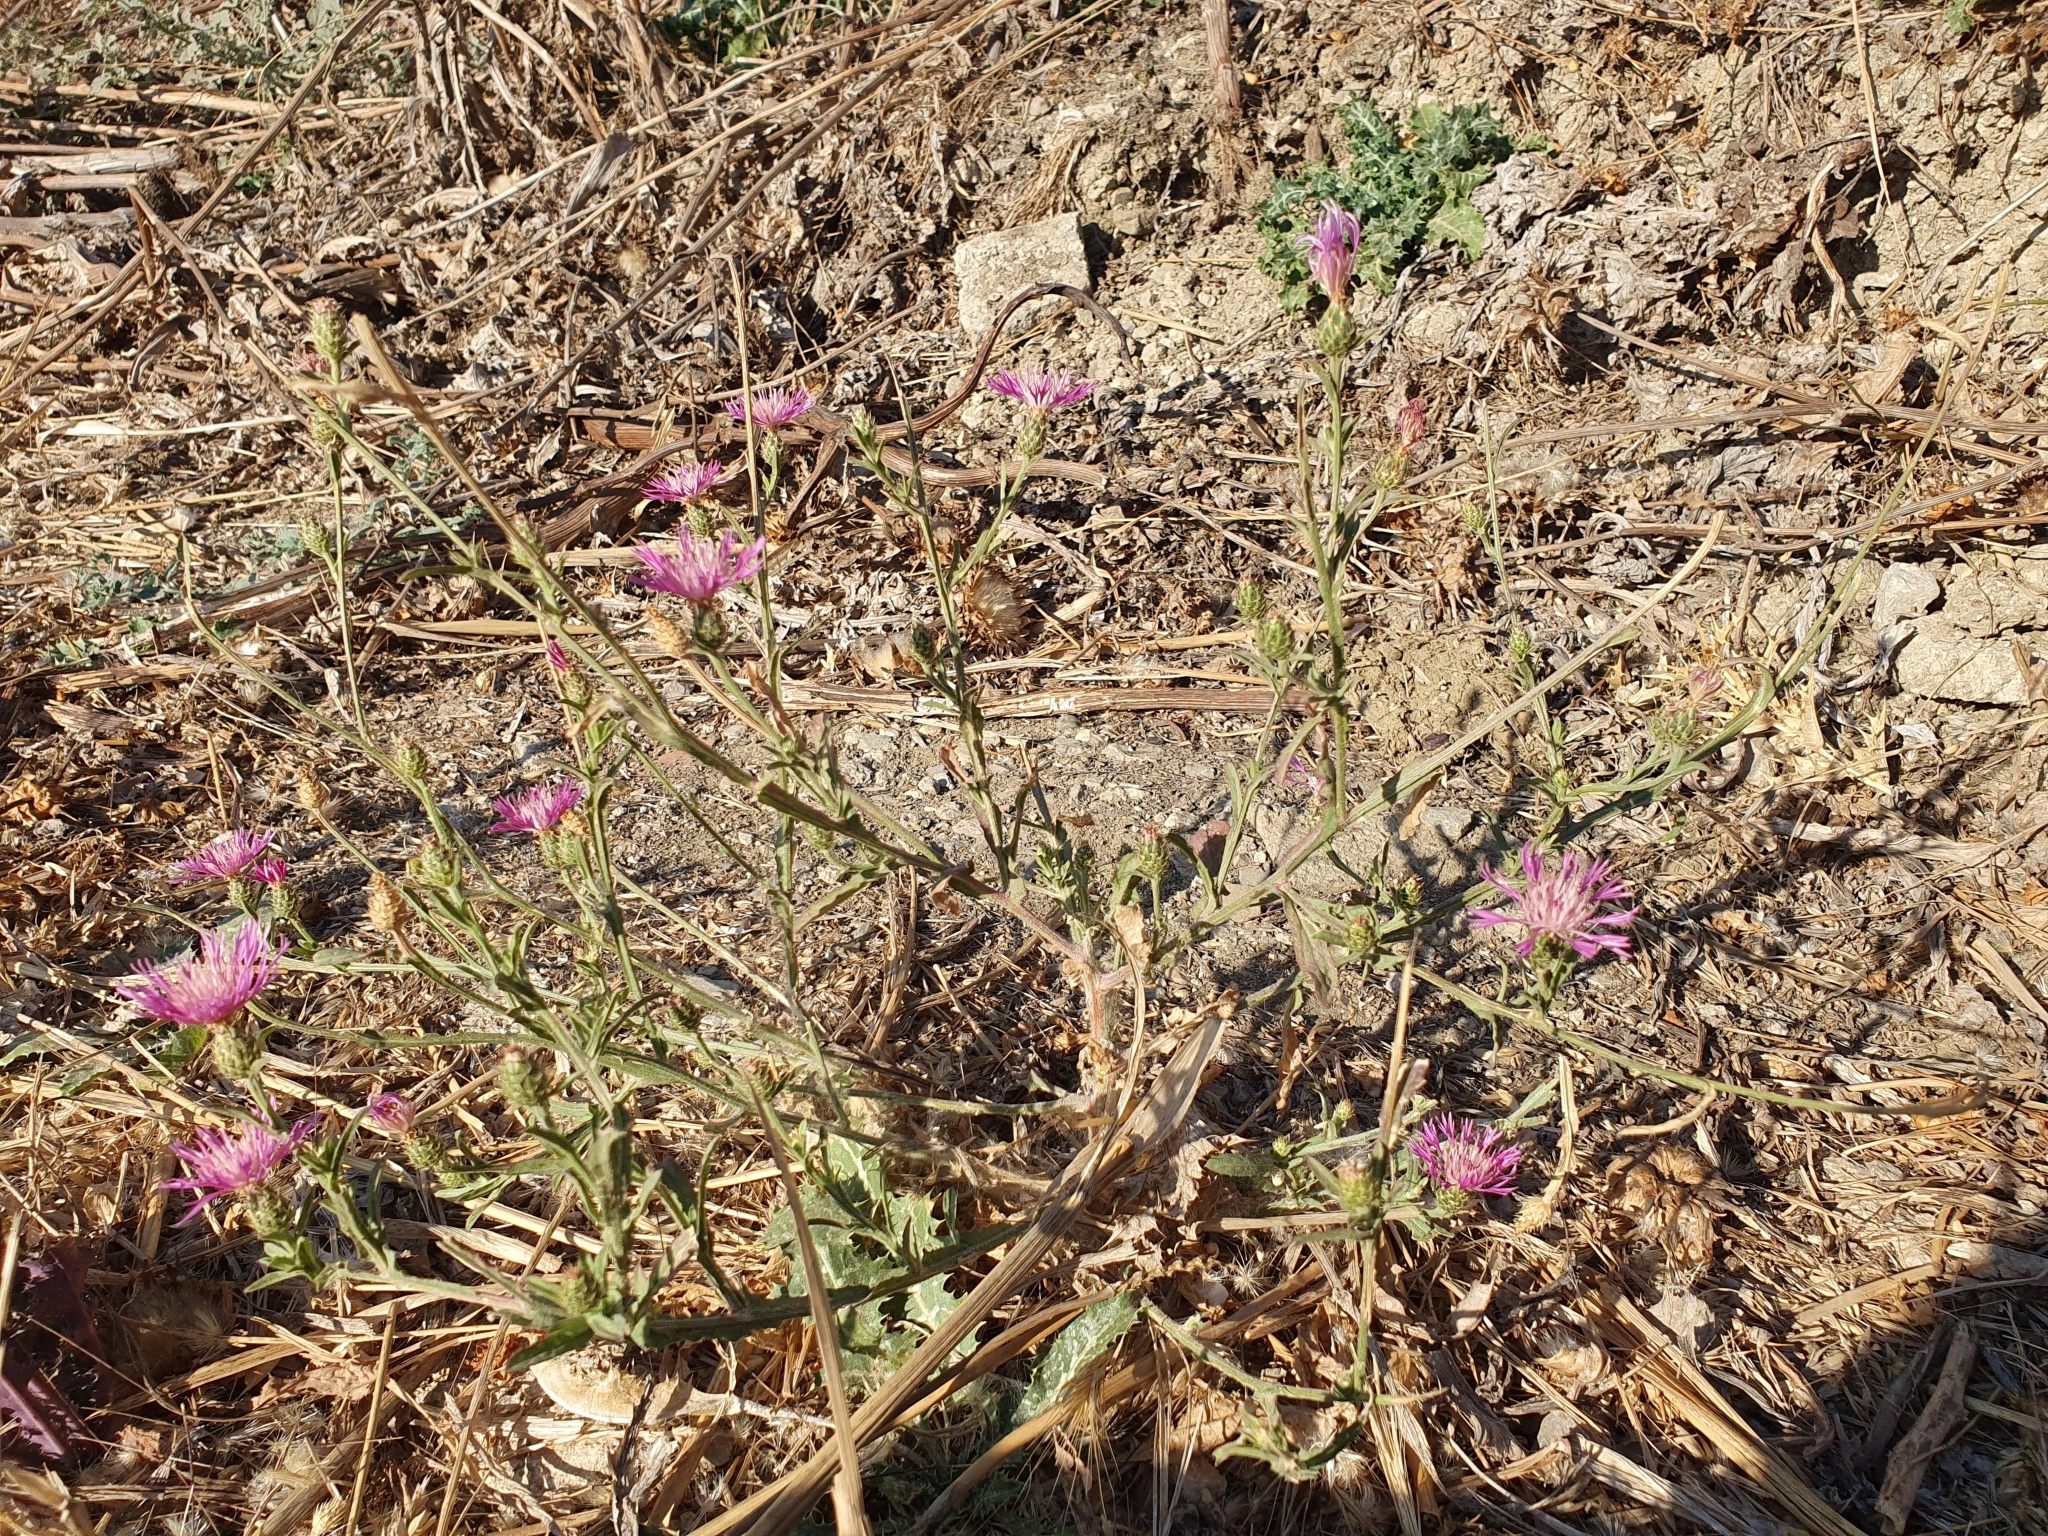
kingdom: Plantae
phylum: Tracheophyta
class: Magnoliopsida
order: Asterales
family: Asteraceae
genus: Centaurea
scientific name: Centaurea napifolia
